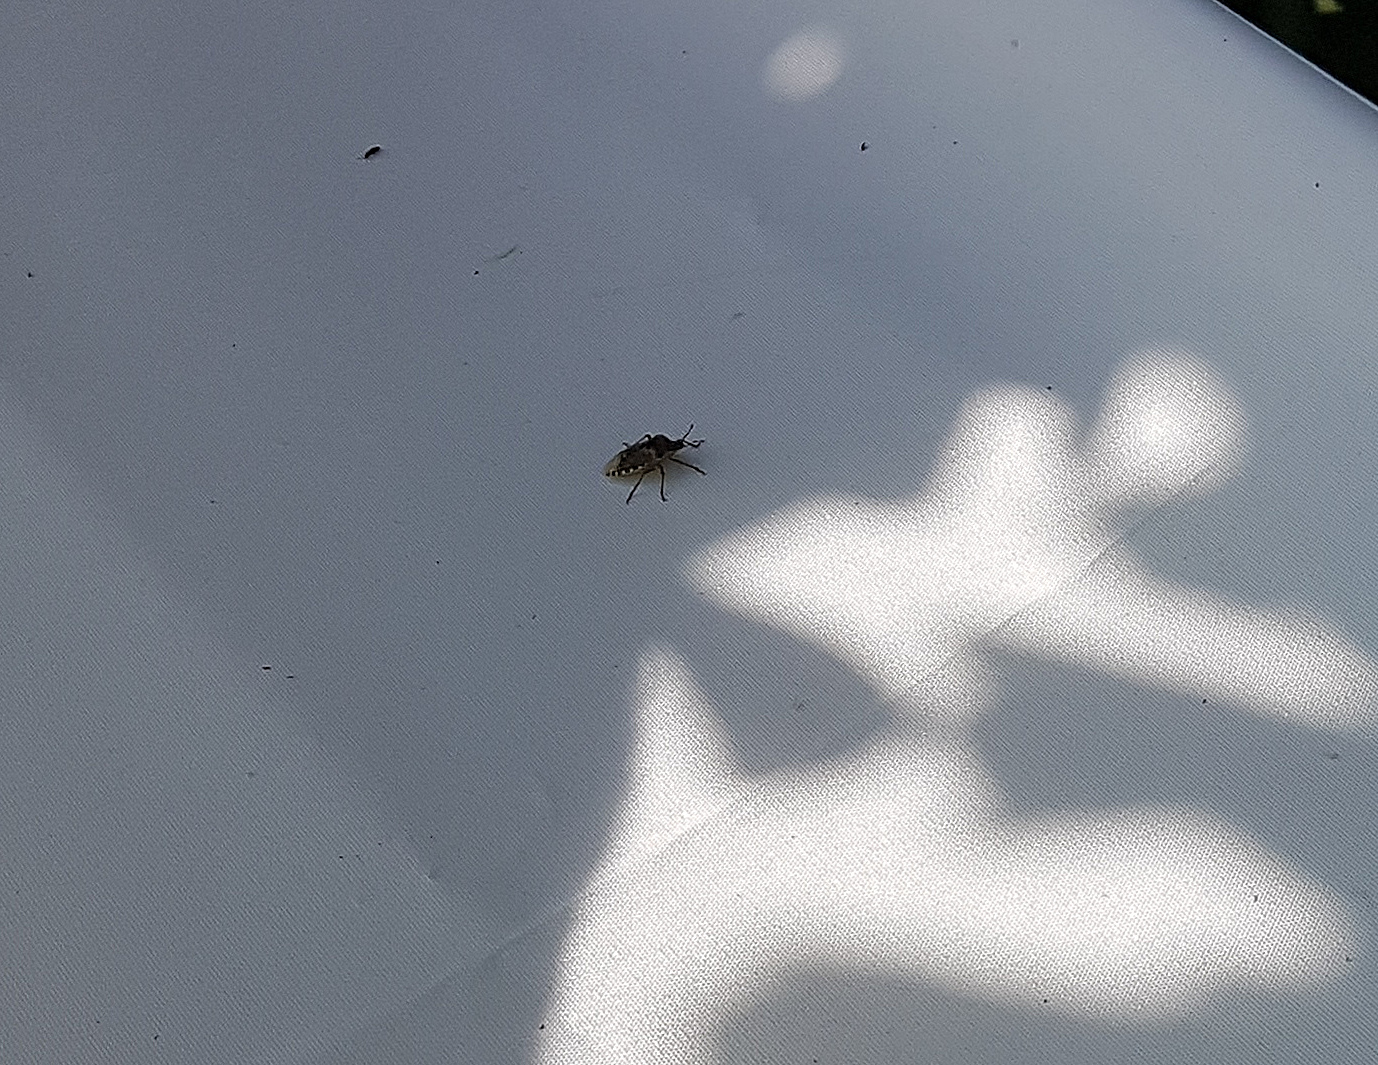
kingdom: Animalia
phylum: Arthropoda
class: Insecta
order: Hemiptera
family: Pentatomidae
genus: Rhaphigaster
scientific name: Rhaphigaster nebulosa
